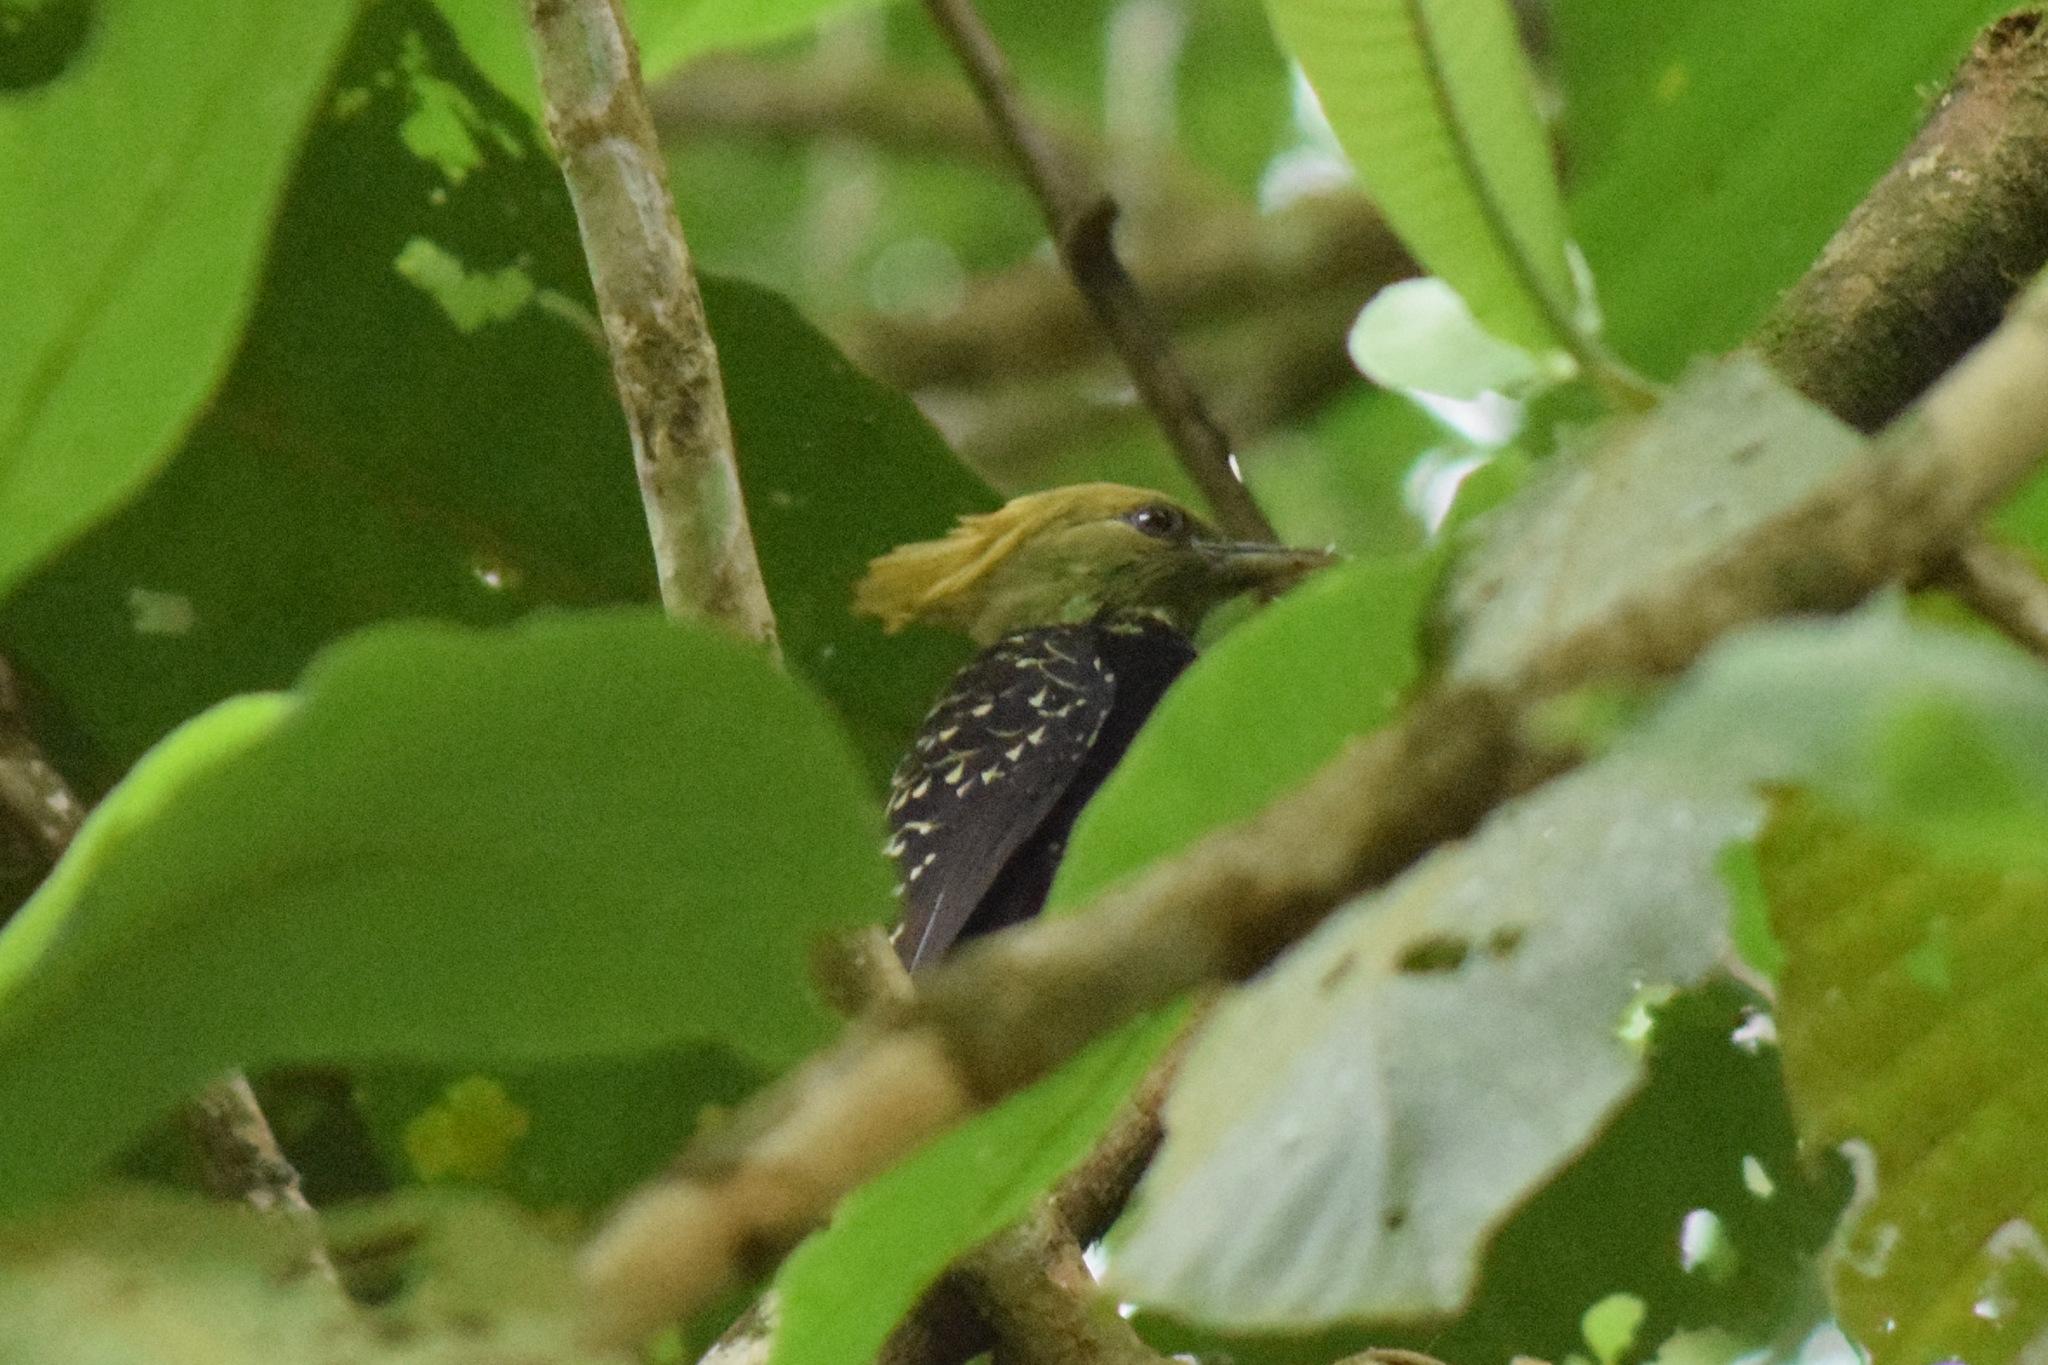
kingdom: Animalia
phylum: Chordata
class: Aves
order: Piciformes
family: Picidae
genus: Celeus
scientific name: Celeus flavescens
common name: Blond-crested woodpecker
